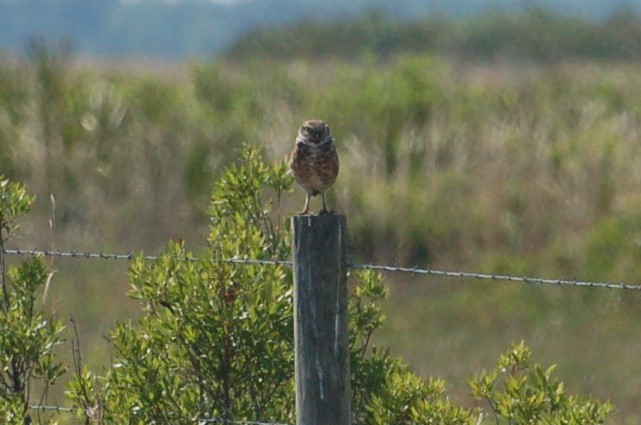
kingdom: Animalia
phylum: Chordata
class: Aves
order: Strigiformes
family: Strigidae
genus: Athene
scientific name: Athene cunicularia
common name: Burrowing owl
